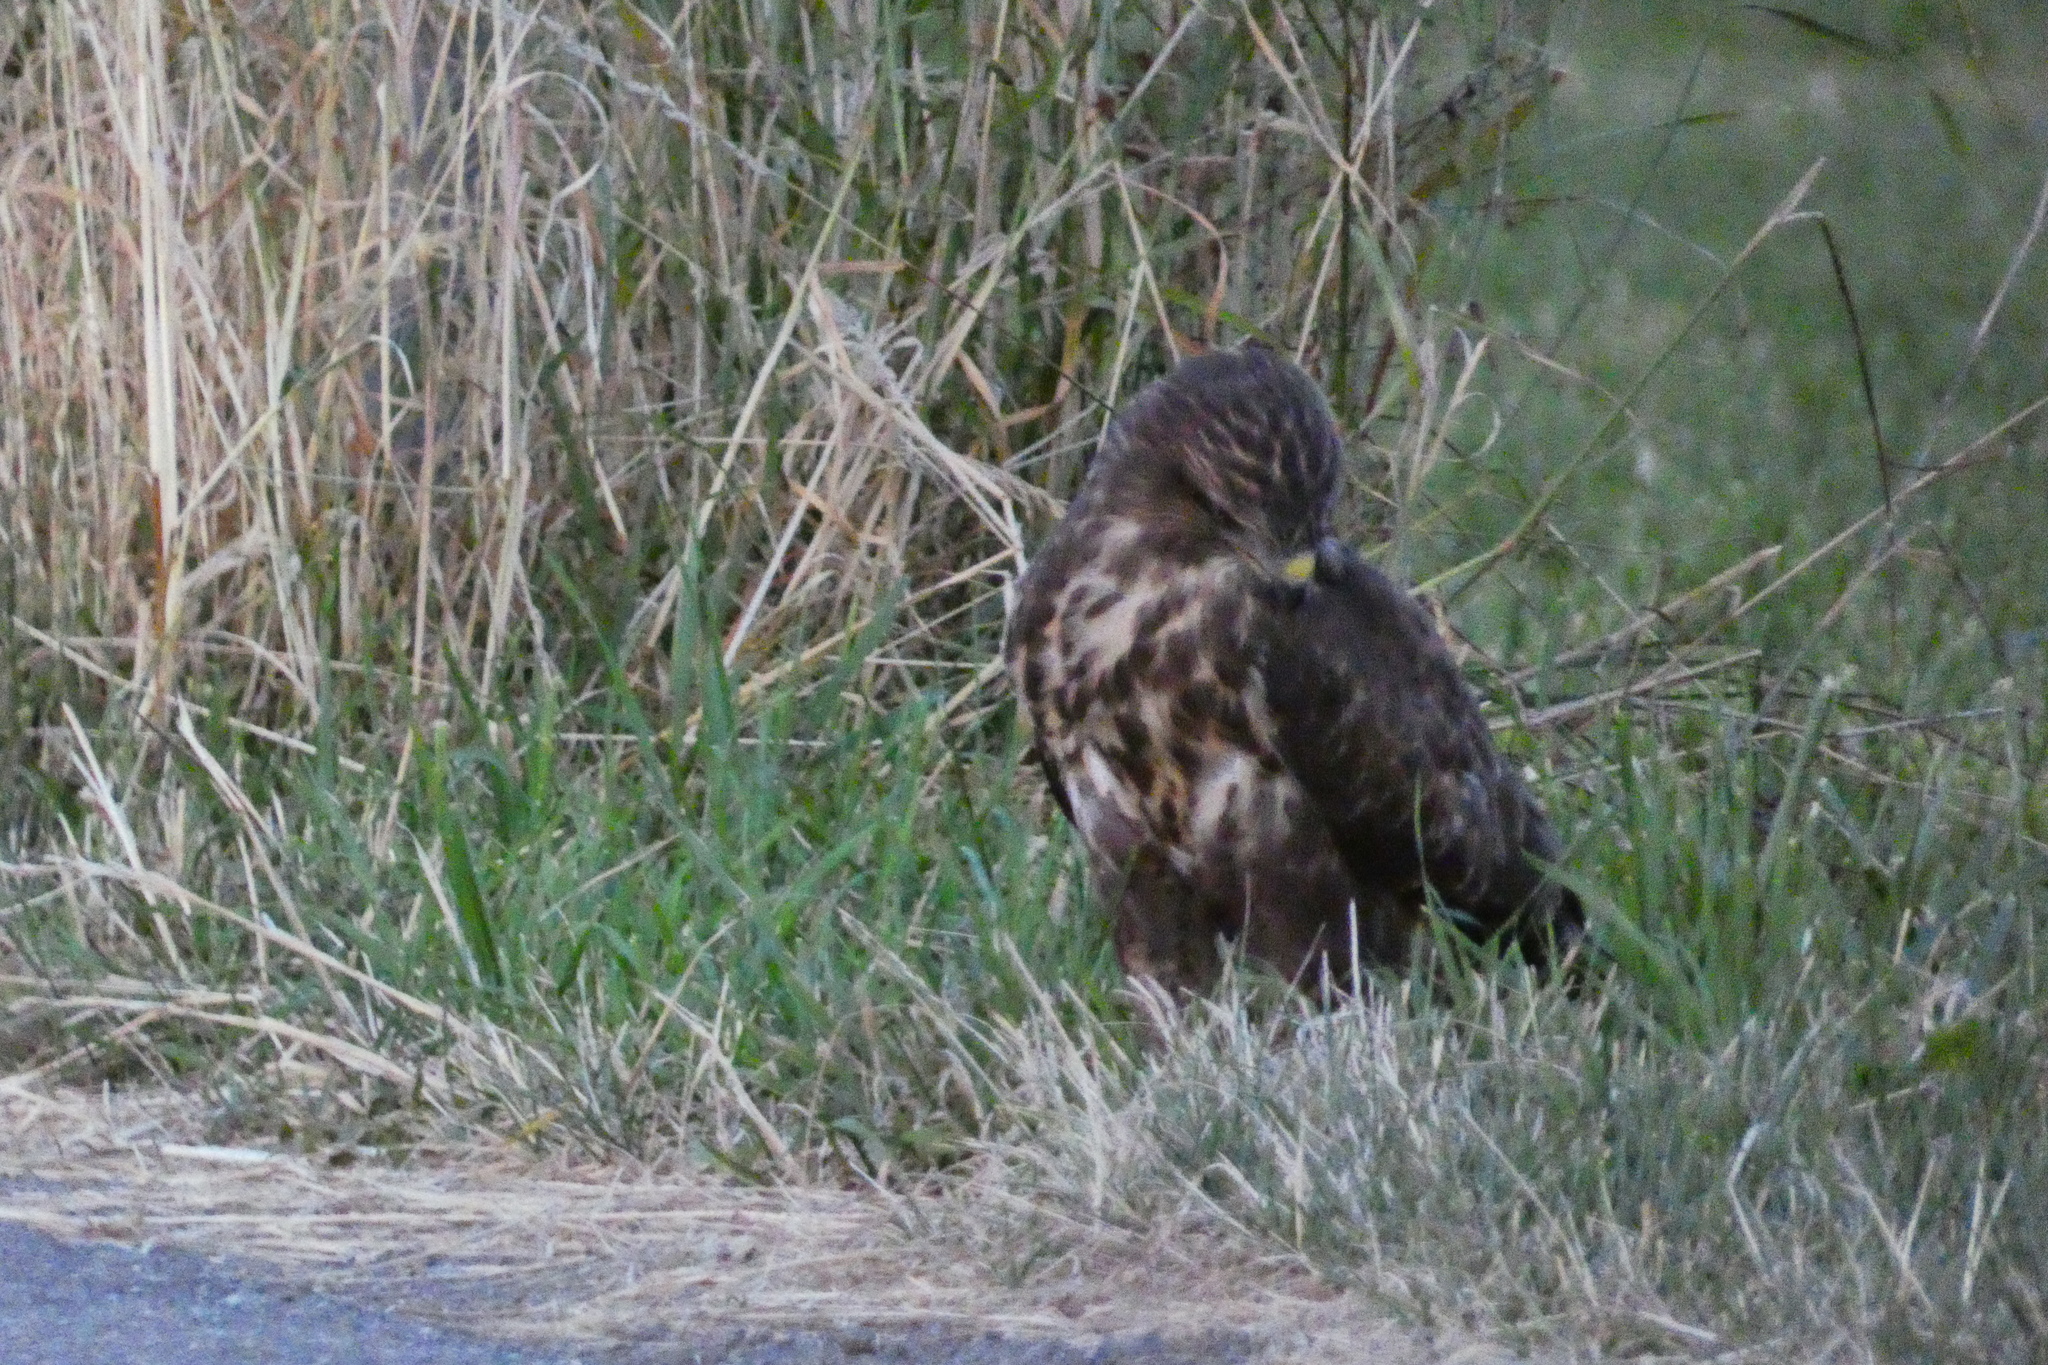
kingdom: Animalia
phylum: Chordata
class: Aves
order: Accipitriformes
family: Accipitridae
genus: Buteo
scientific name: Buteo buteo
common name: Common buzzard
